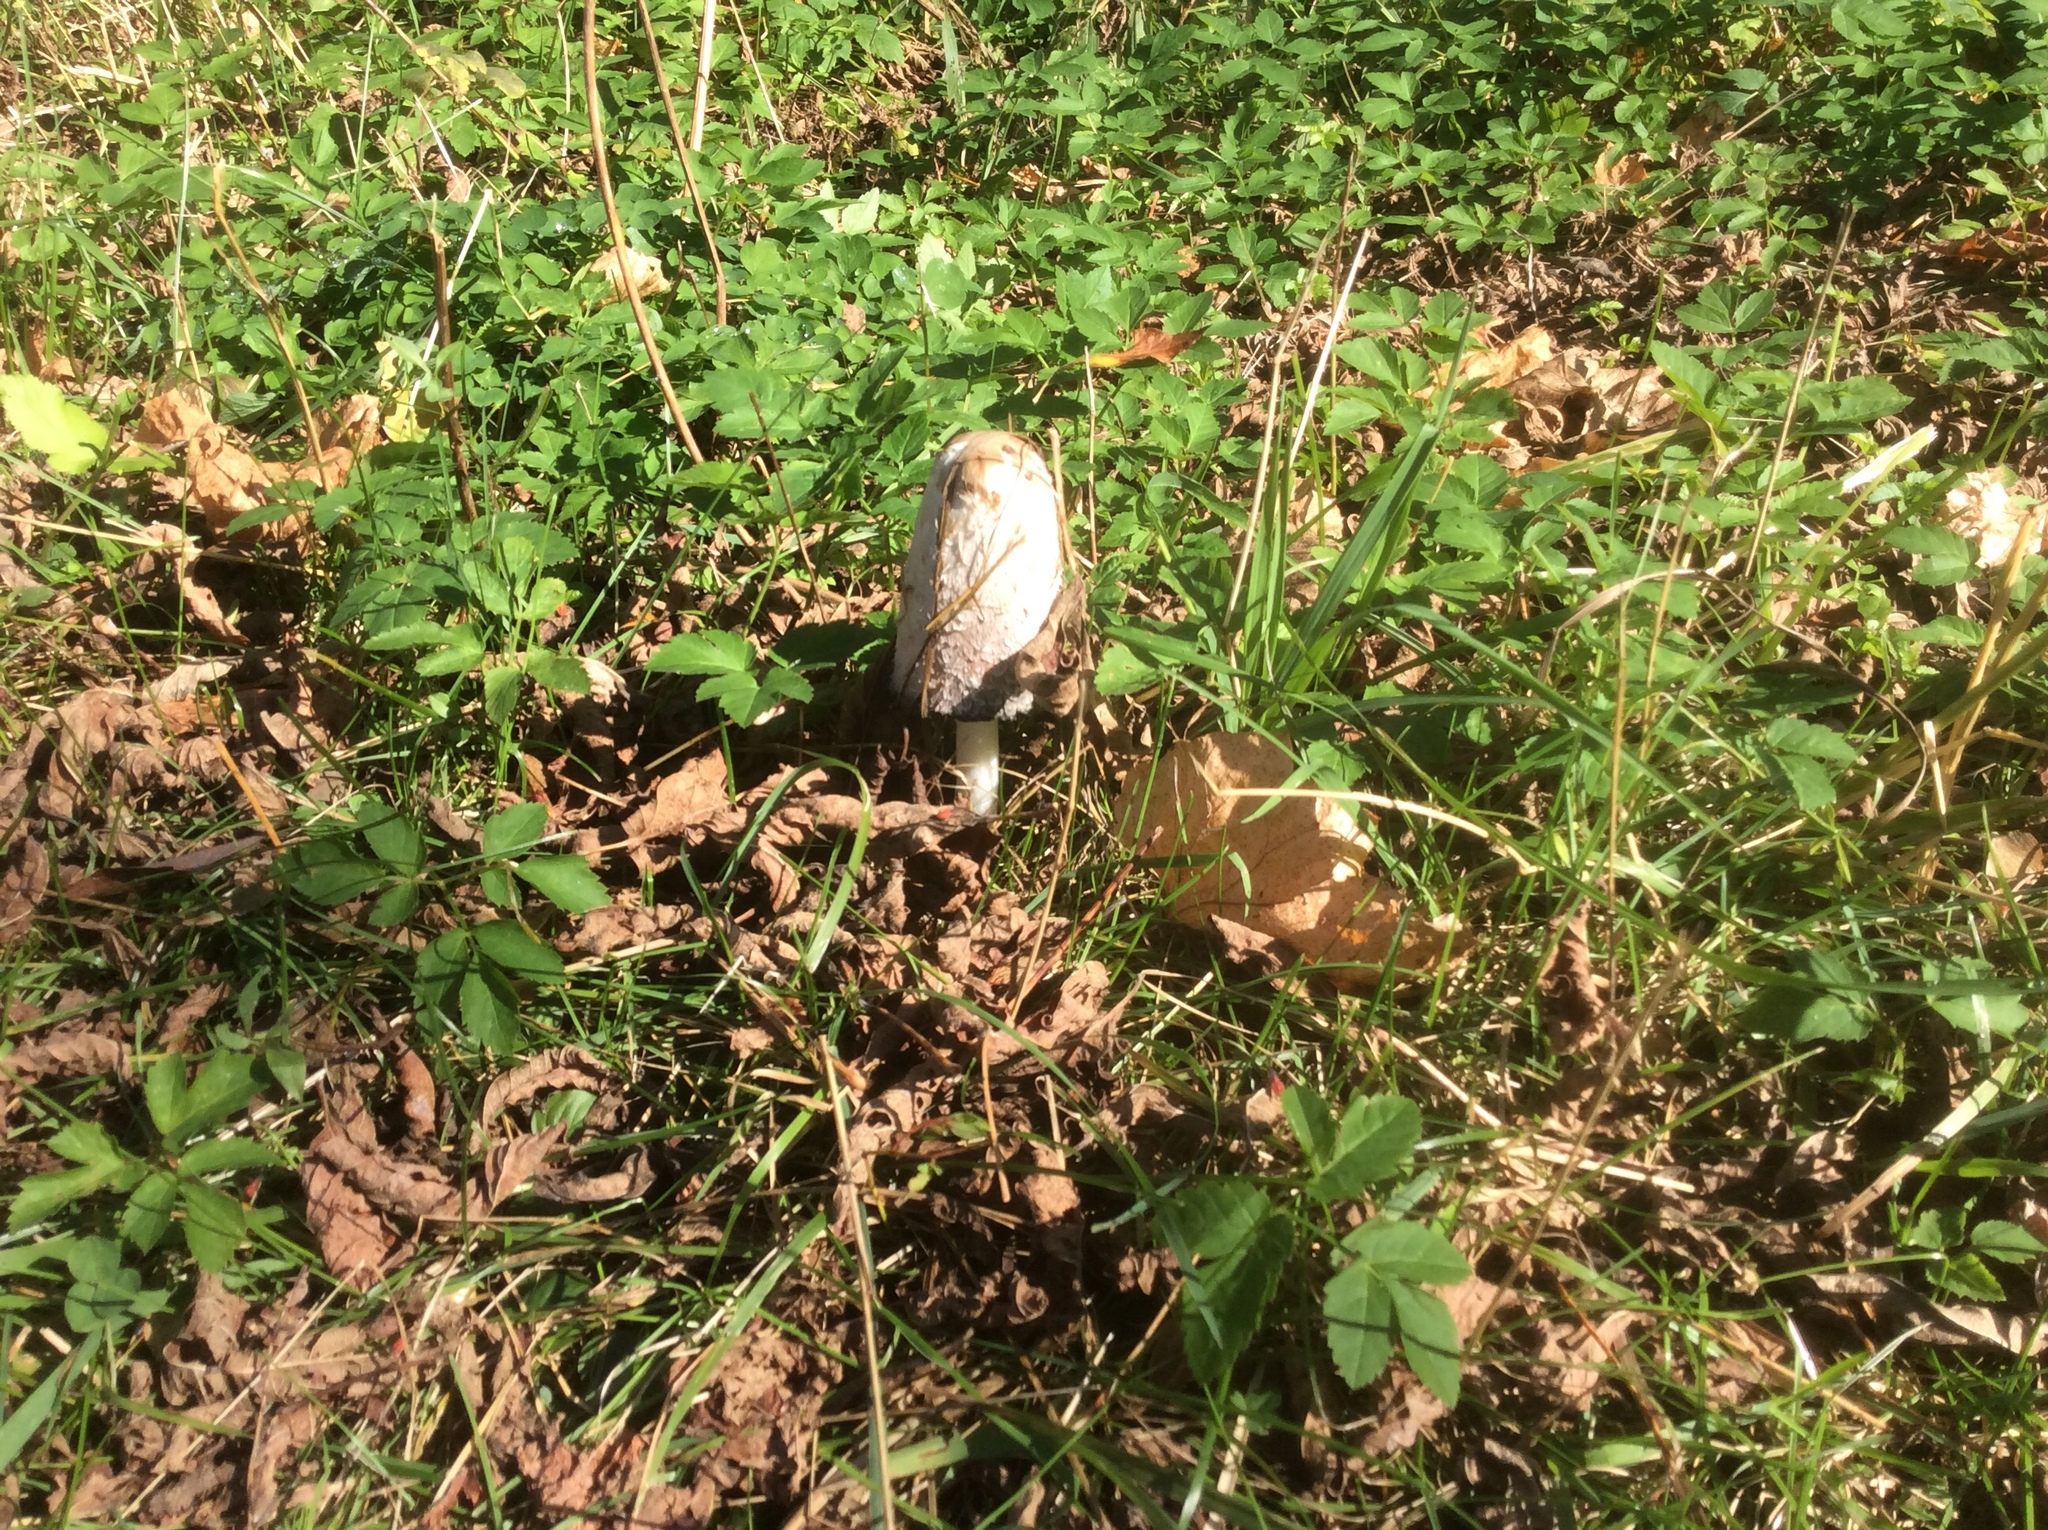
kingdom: Fungi
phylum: Basidiomycota
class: Agaricomycetes
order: Agaricales
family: Agaricaceae
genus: Coprinus
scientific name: Coprinus comatus
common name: Lawyer's wig
